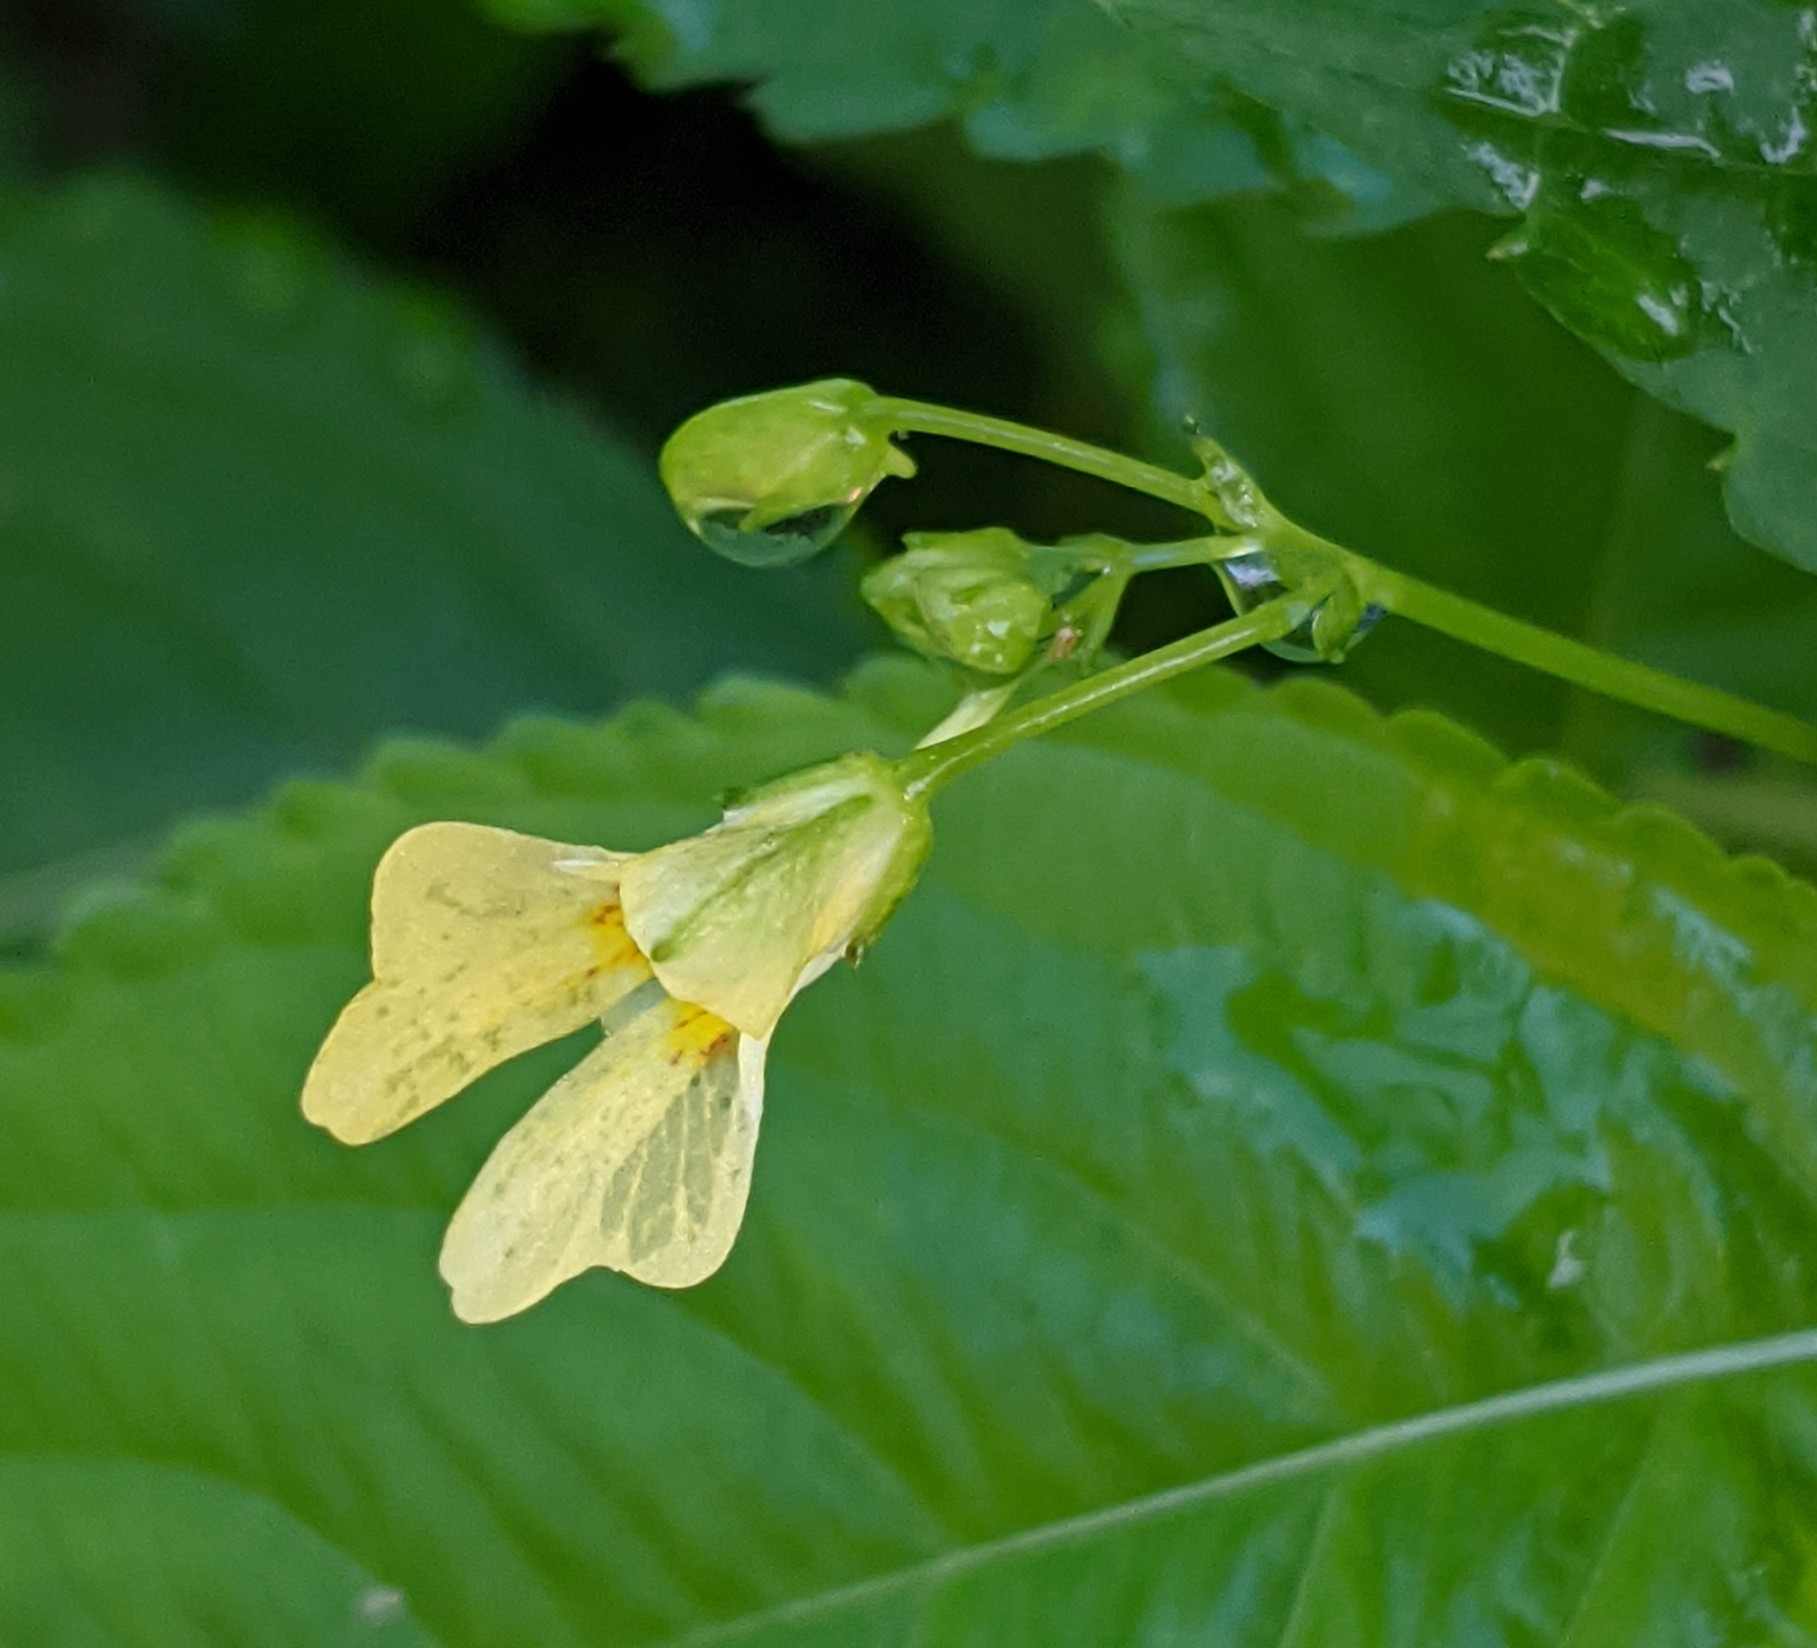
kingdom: Plantae
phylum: Tracheophyta
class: Magnoliopsida
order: Ericales
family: Balsaminaceae
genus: Impatiens
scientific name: Impatiens parviflora
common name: Small balsam
